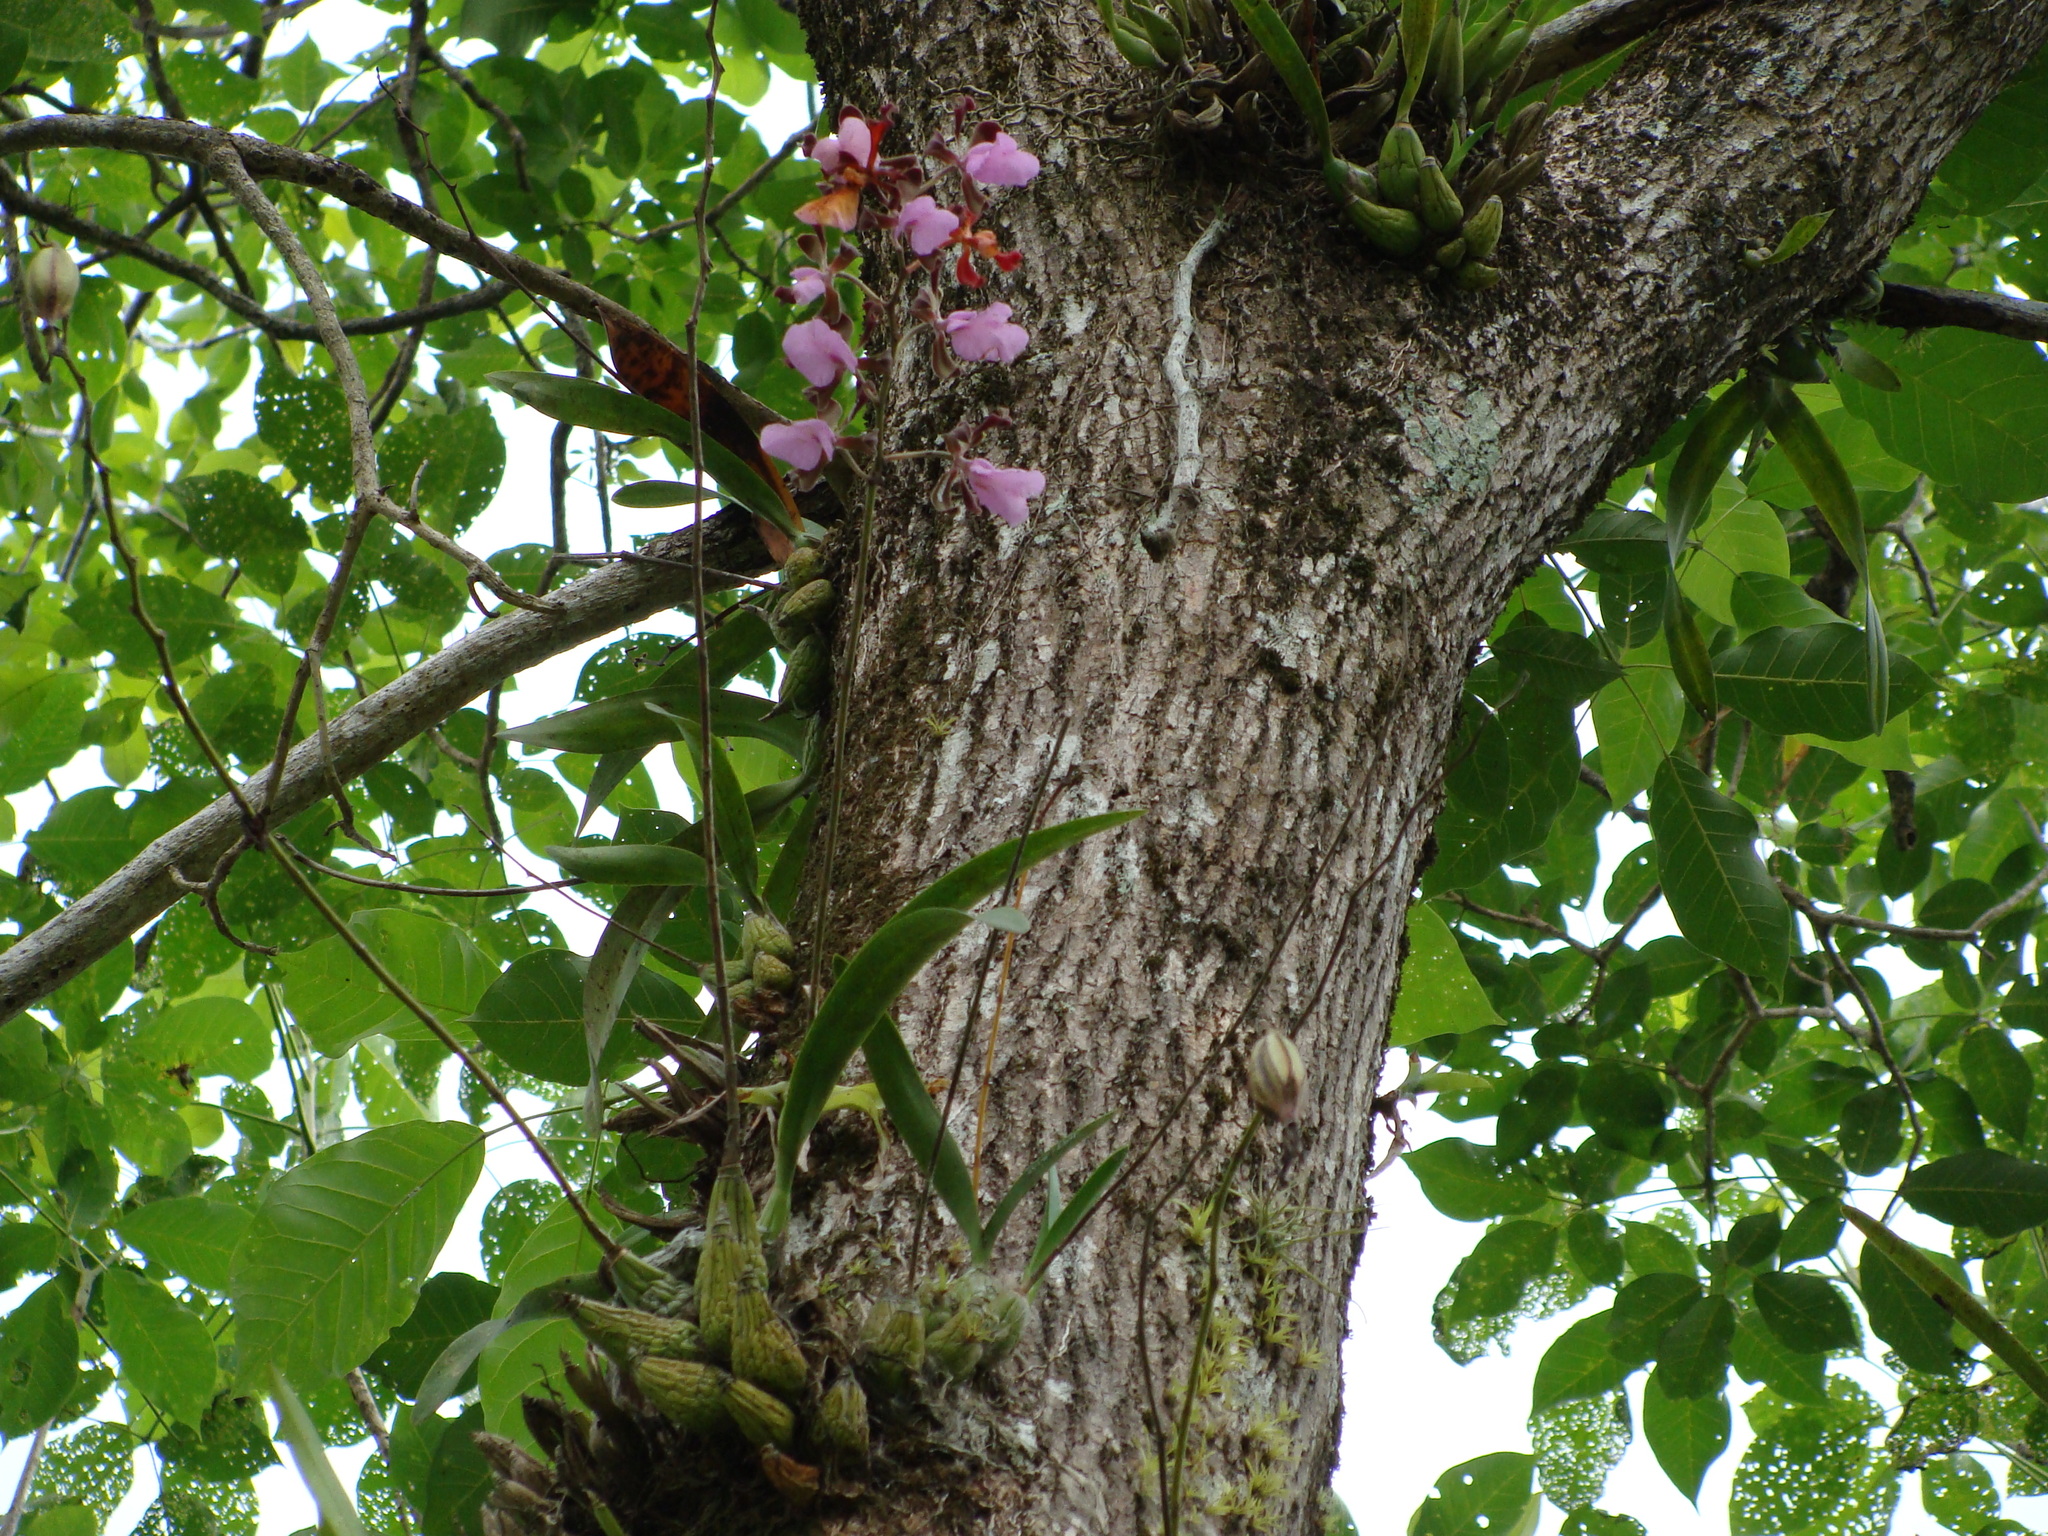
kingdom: Plantae
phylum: Tracheophyta
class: Liliopsida
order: Asparagales
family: Orchidaceae
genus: Encyclia
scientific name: Encyclia cordigera
